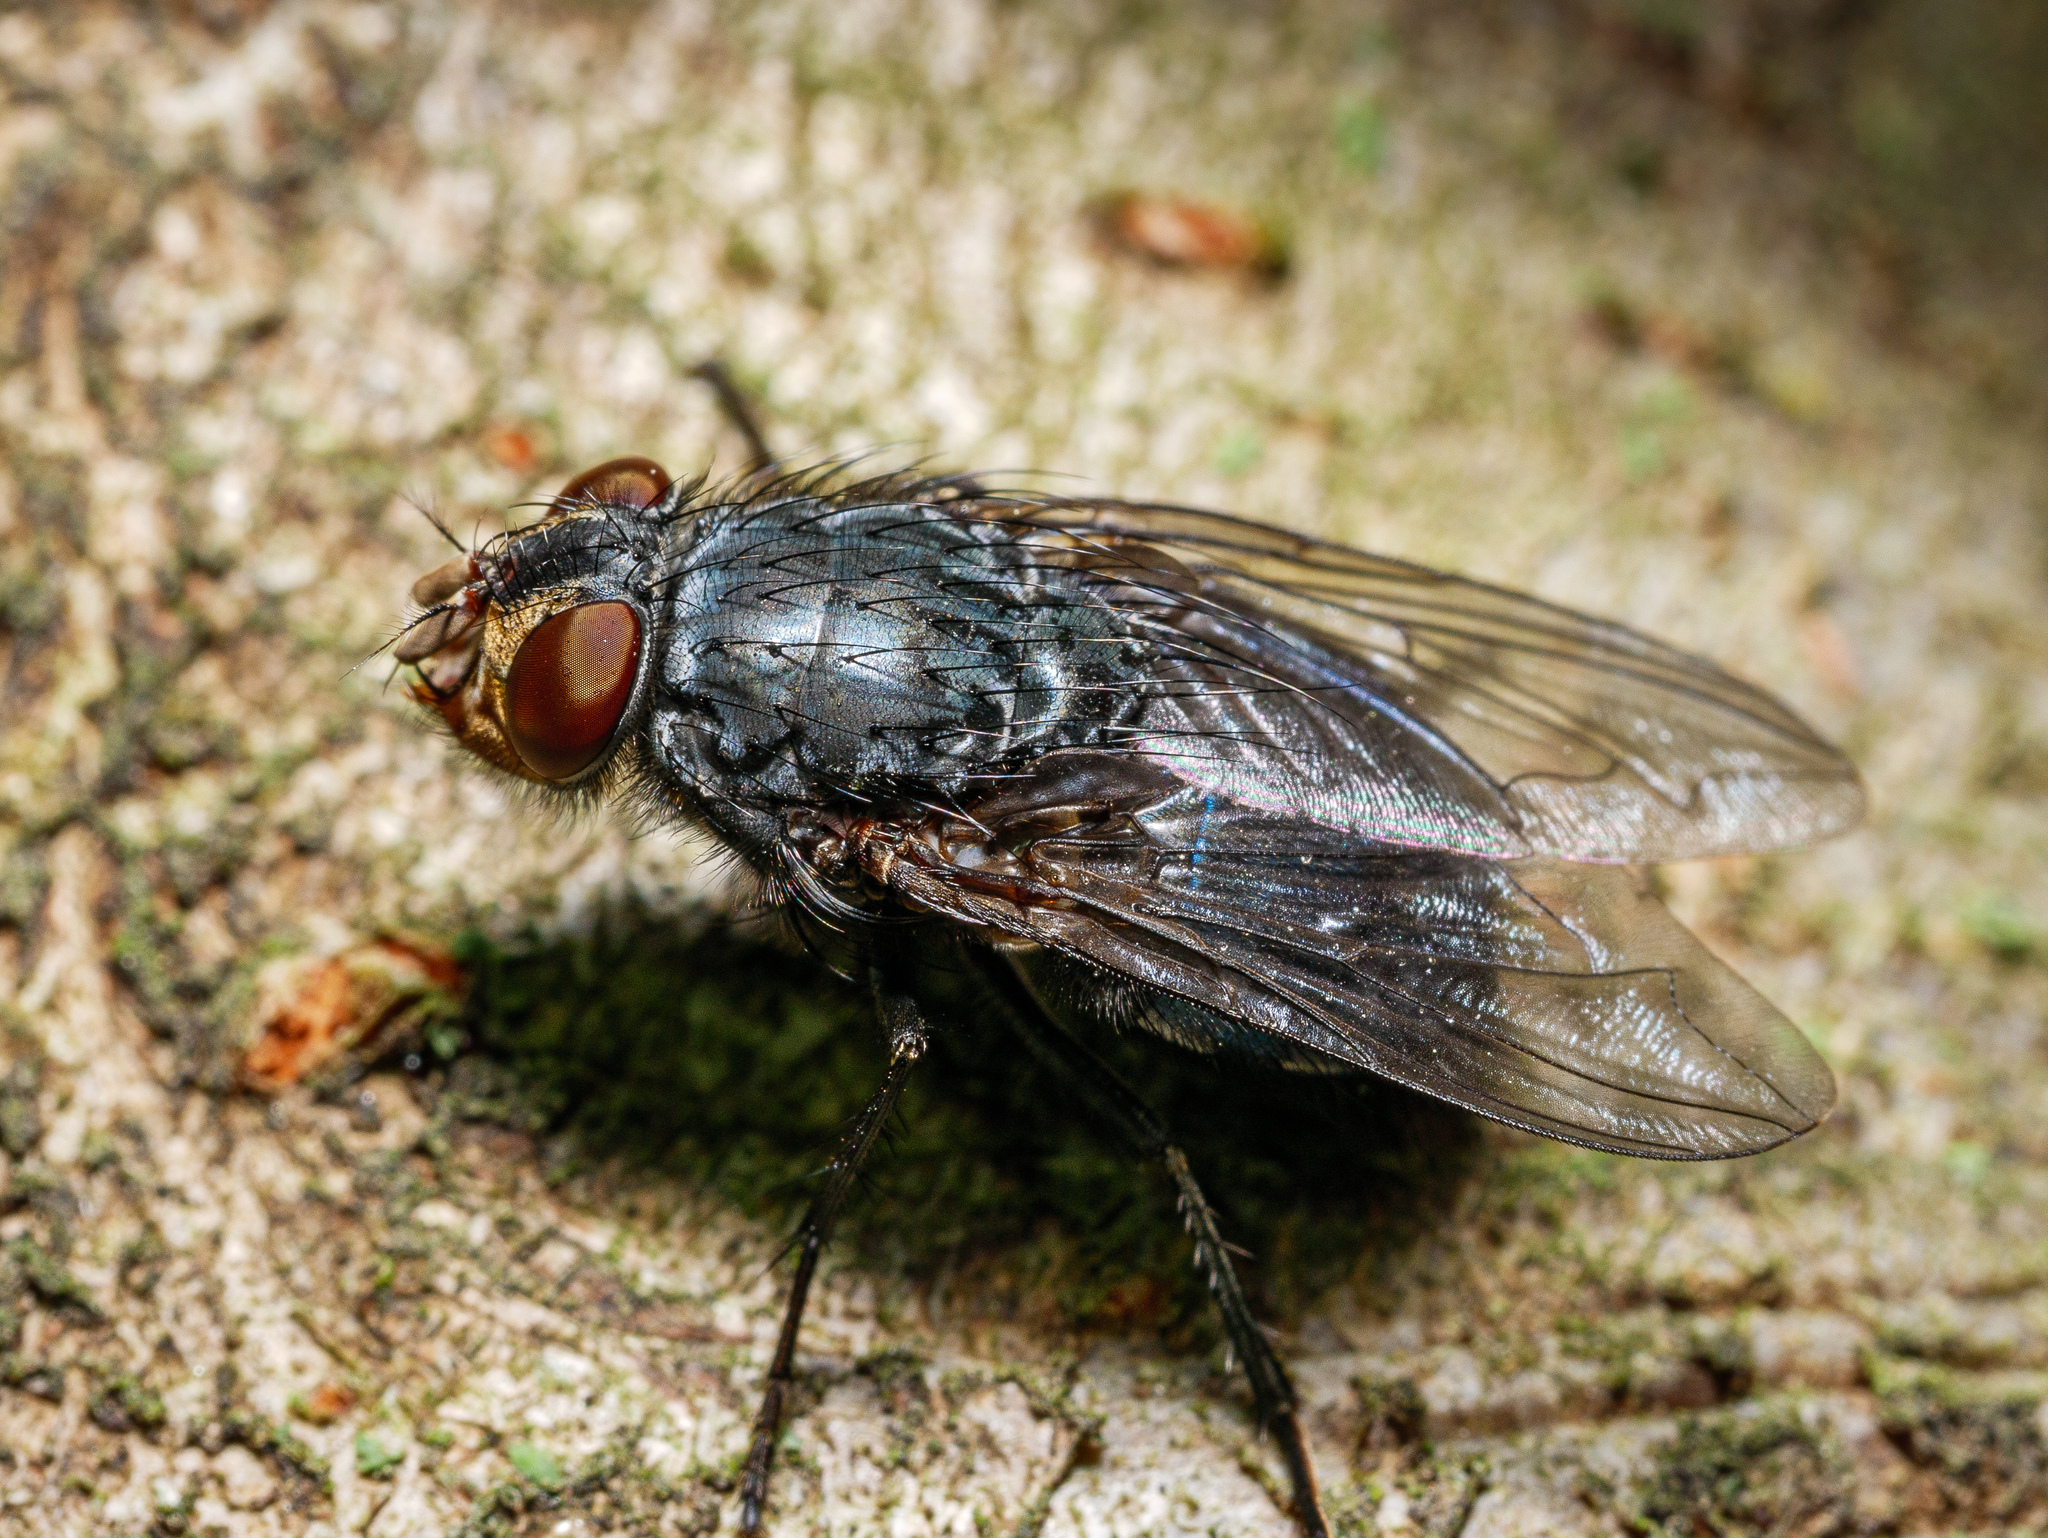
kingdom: Animalia
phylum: Arthropoda
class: Insecta
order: Diptera
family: Calliphoridae
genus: Calliphora
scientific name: Calliphora vicina
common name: Common blow flie
